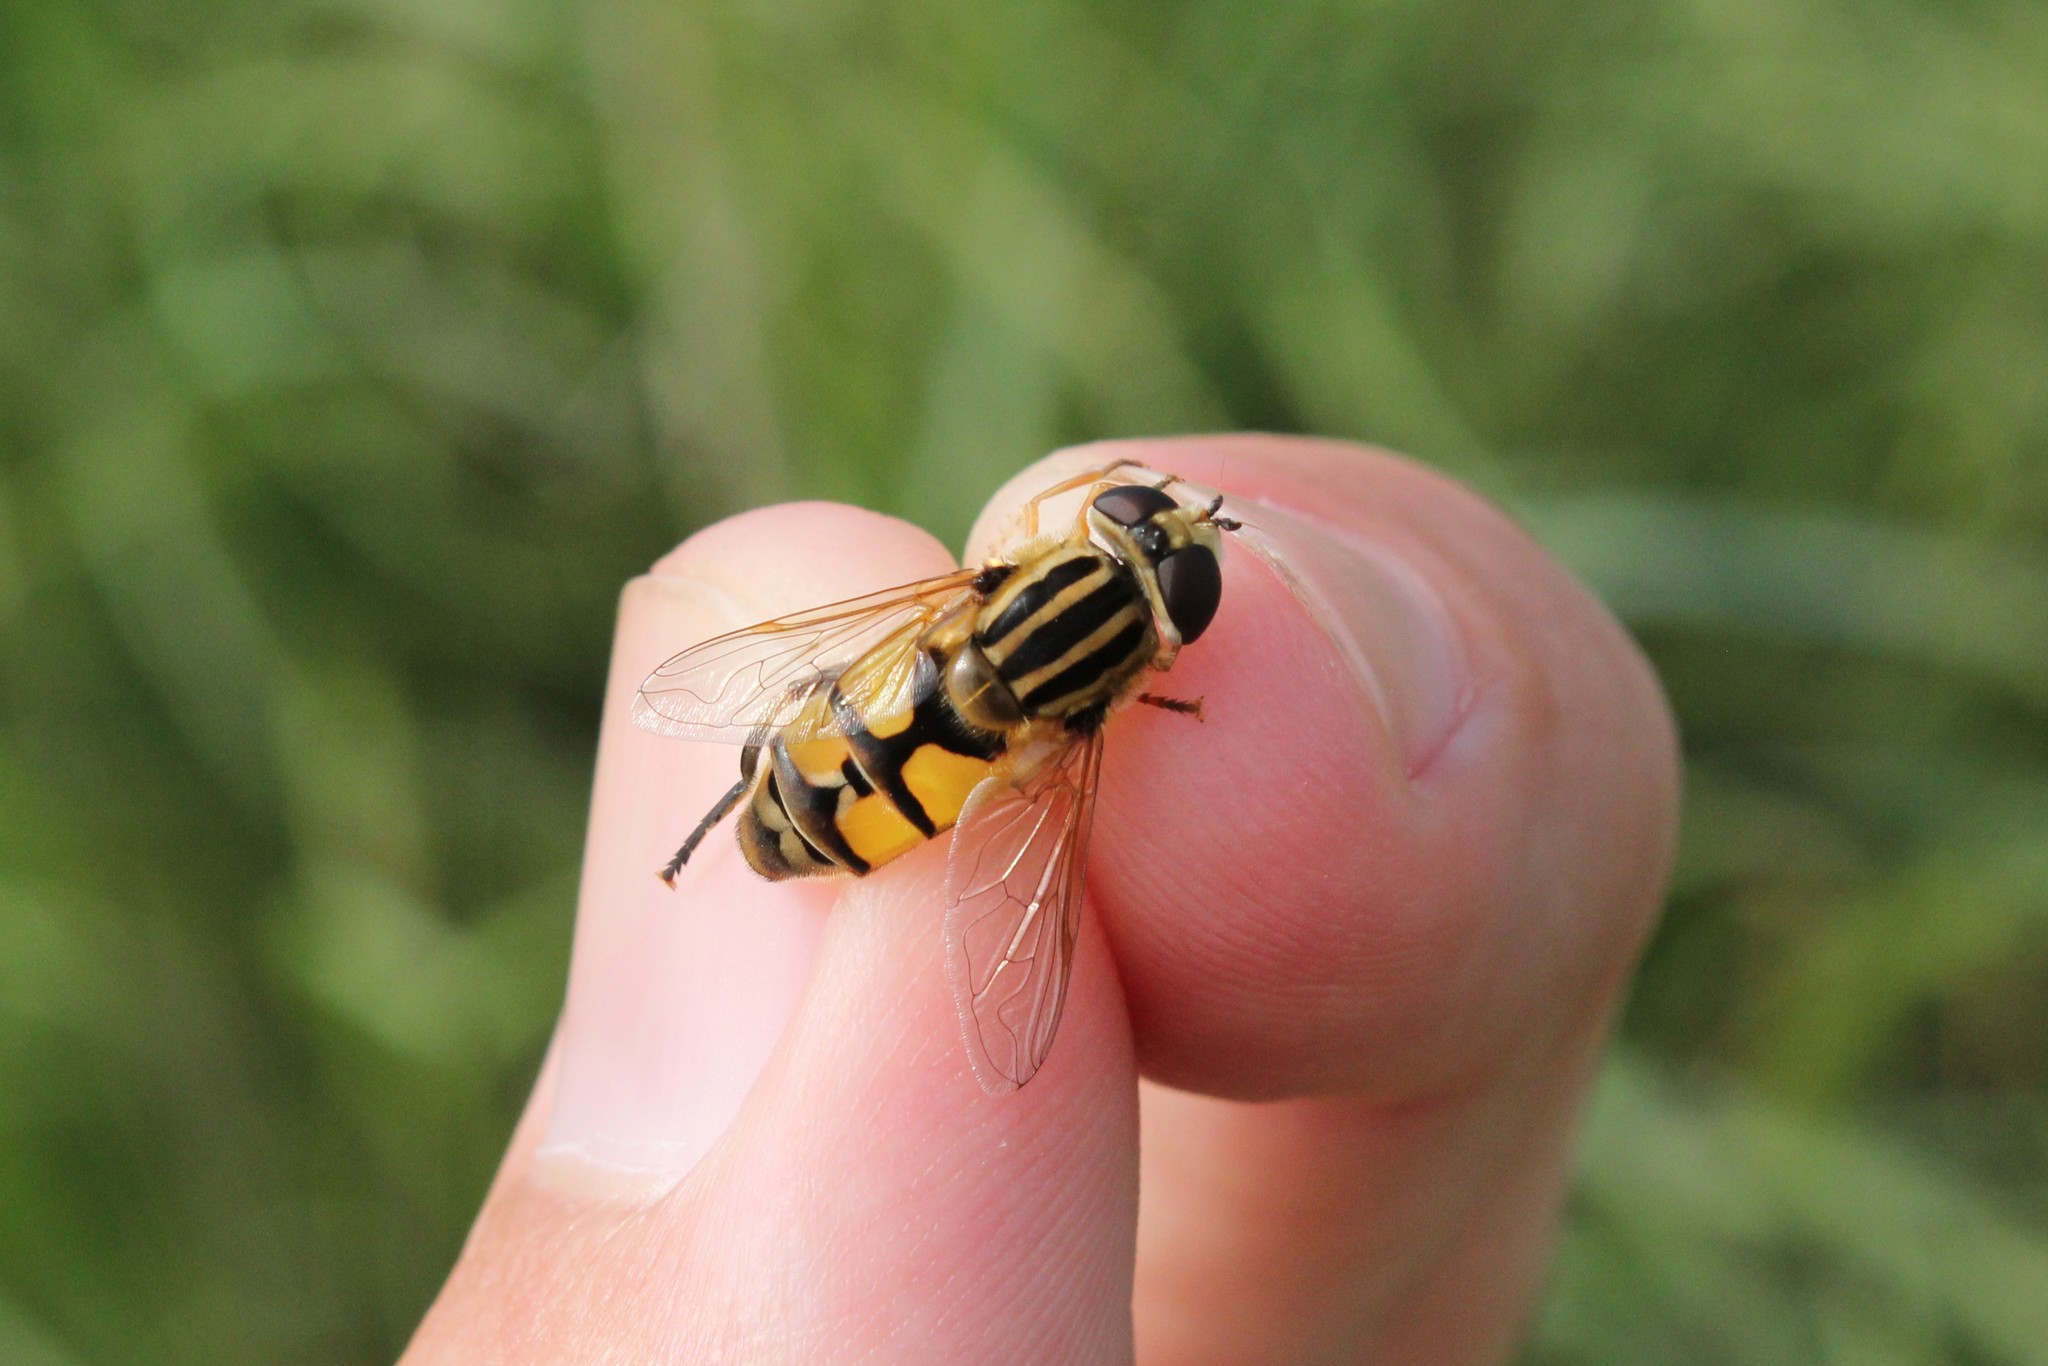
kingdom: Animalia
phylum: Arthropoda
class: Insecta
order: Diptera
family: Syrphidae
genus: Helophilus
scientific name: Helophilus latifrons
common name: Broad-headed marsh fly
